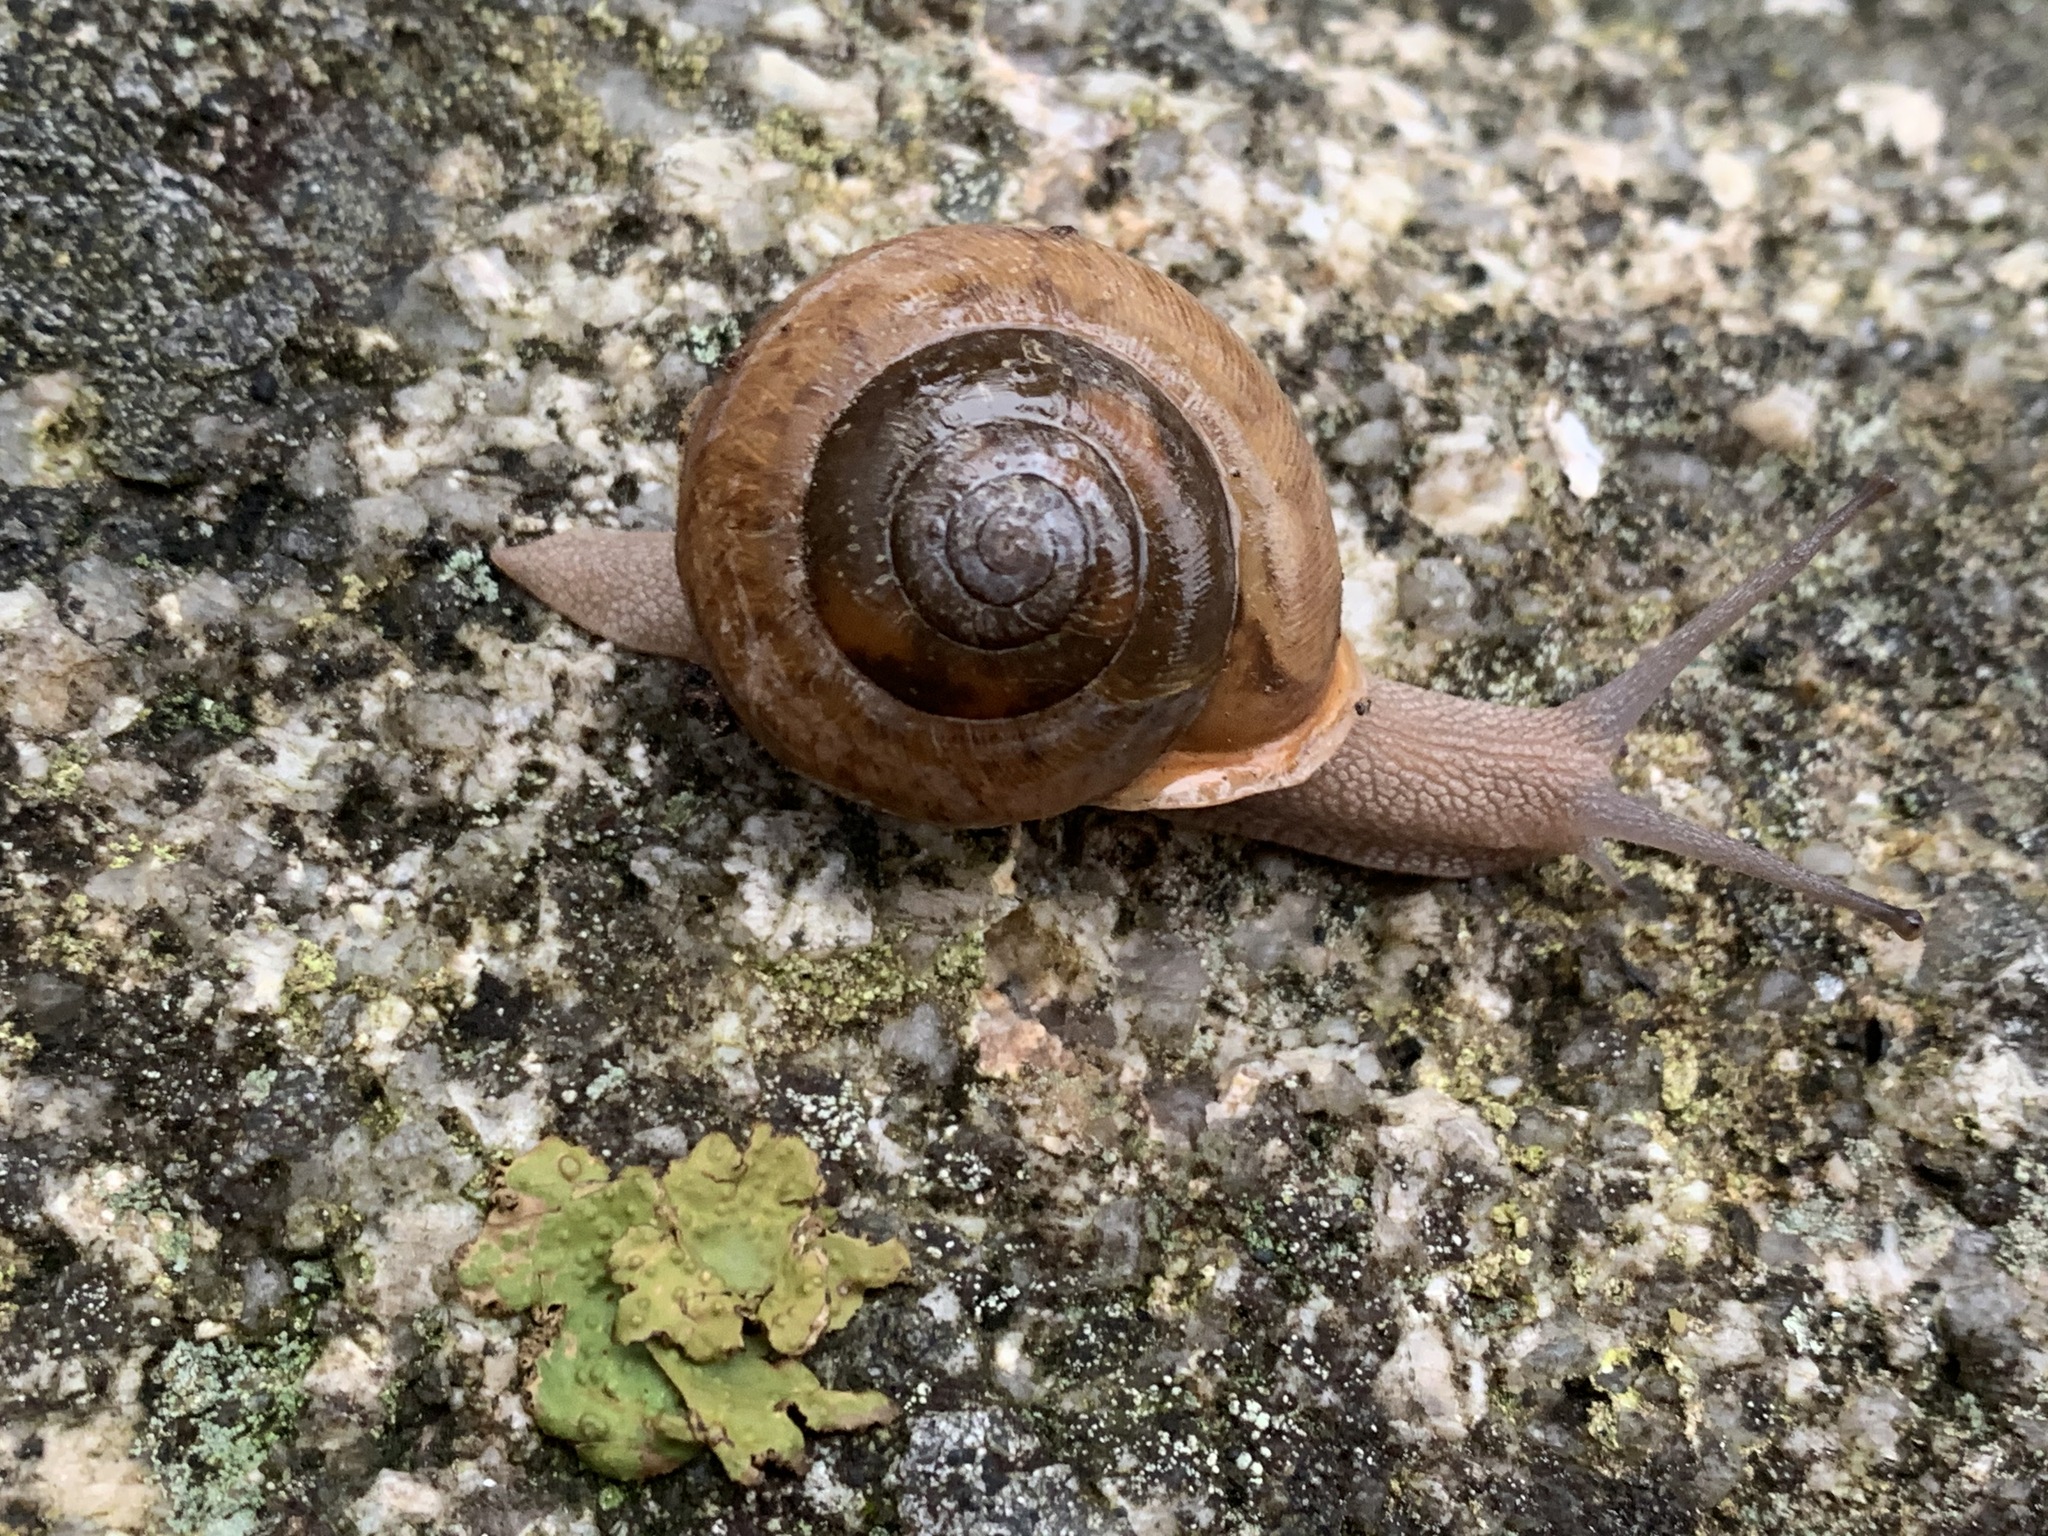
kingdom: Animalia
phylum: Mollusca
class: Gastropoda
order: Stylommatophora
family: Polygyridae
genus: Neohelix
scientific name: Neohelix albolabris
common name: Eastern whitelip
